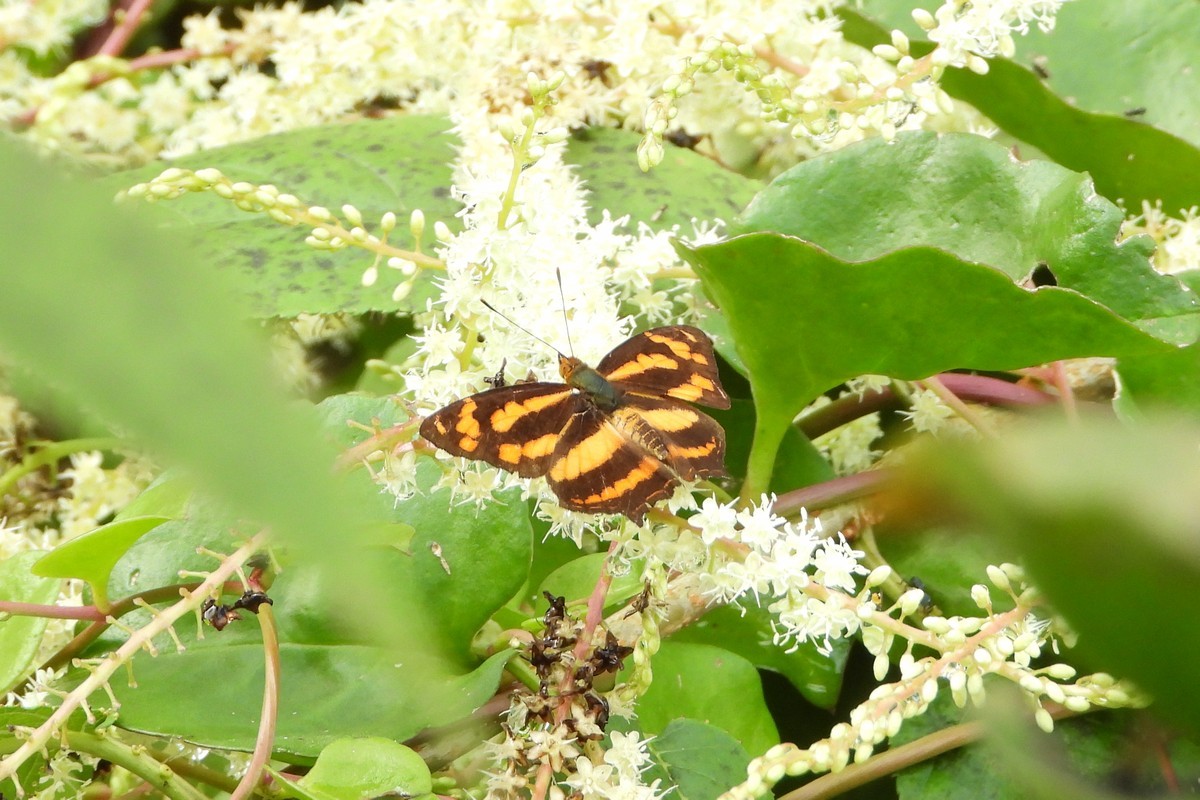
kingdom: Animalia
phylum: Arthropoda
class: Insecta
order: Lepidoptera
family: Nymphalidae
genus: Symbrenthia
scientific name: Symbrenthia hypselis
